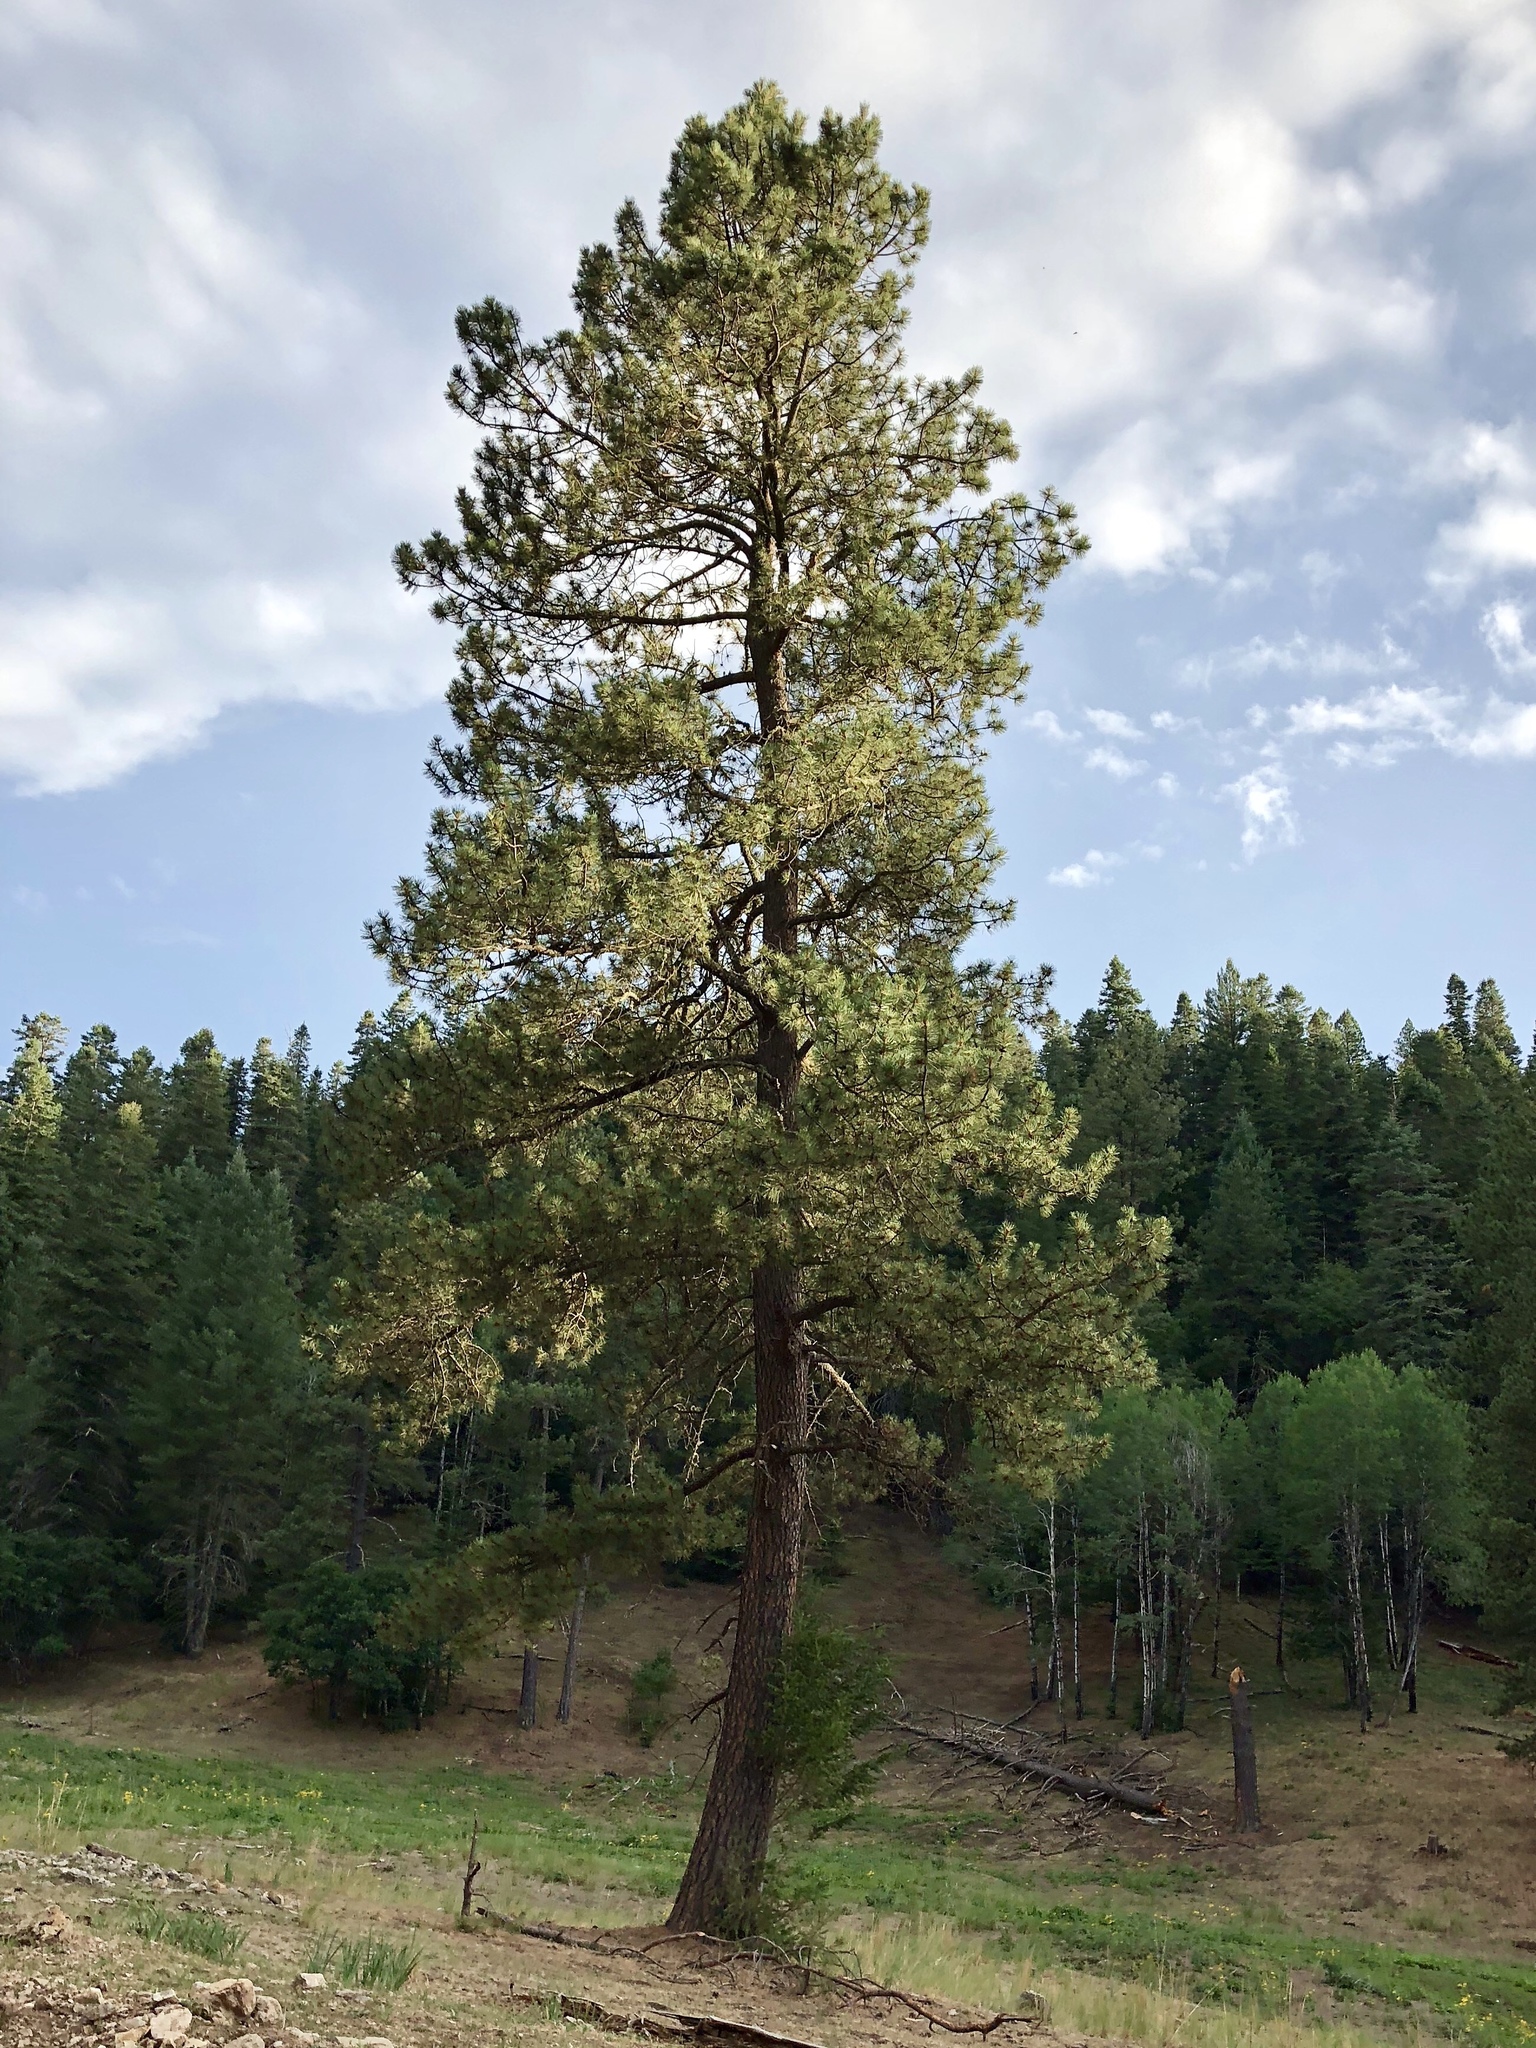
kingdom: Plantae
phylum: Tracheophyta
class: Pinopsida
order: Pinales
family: Pinaceae
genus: Pinus
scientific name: Pinus ponderosa
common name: Western yellow-pine
